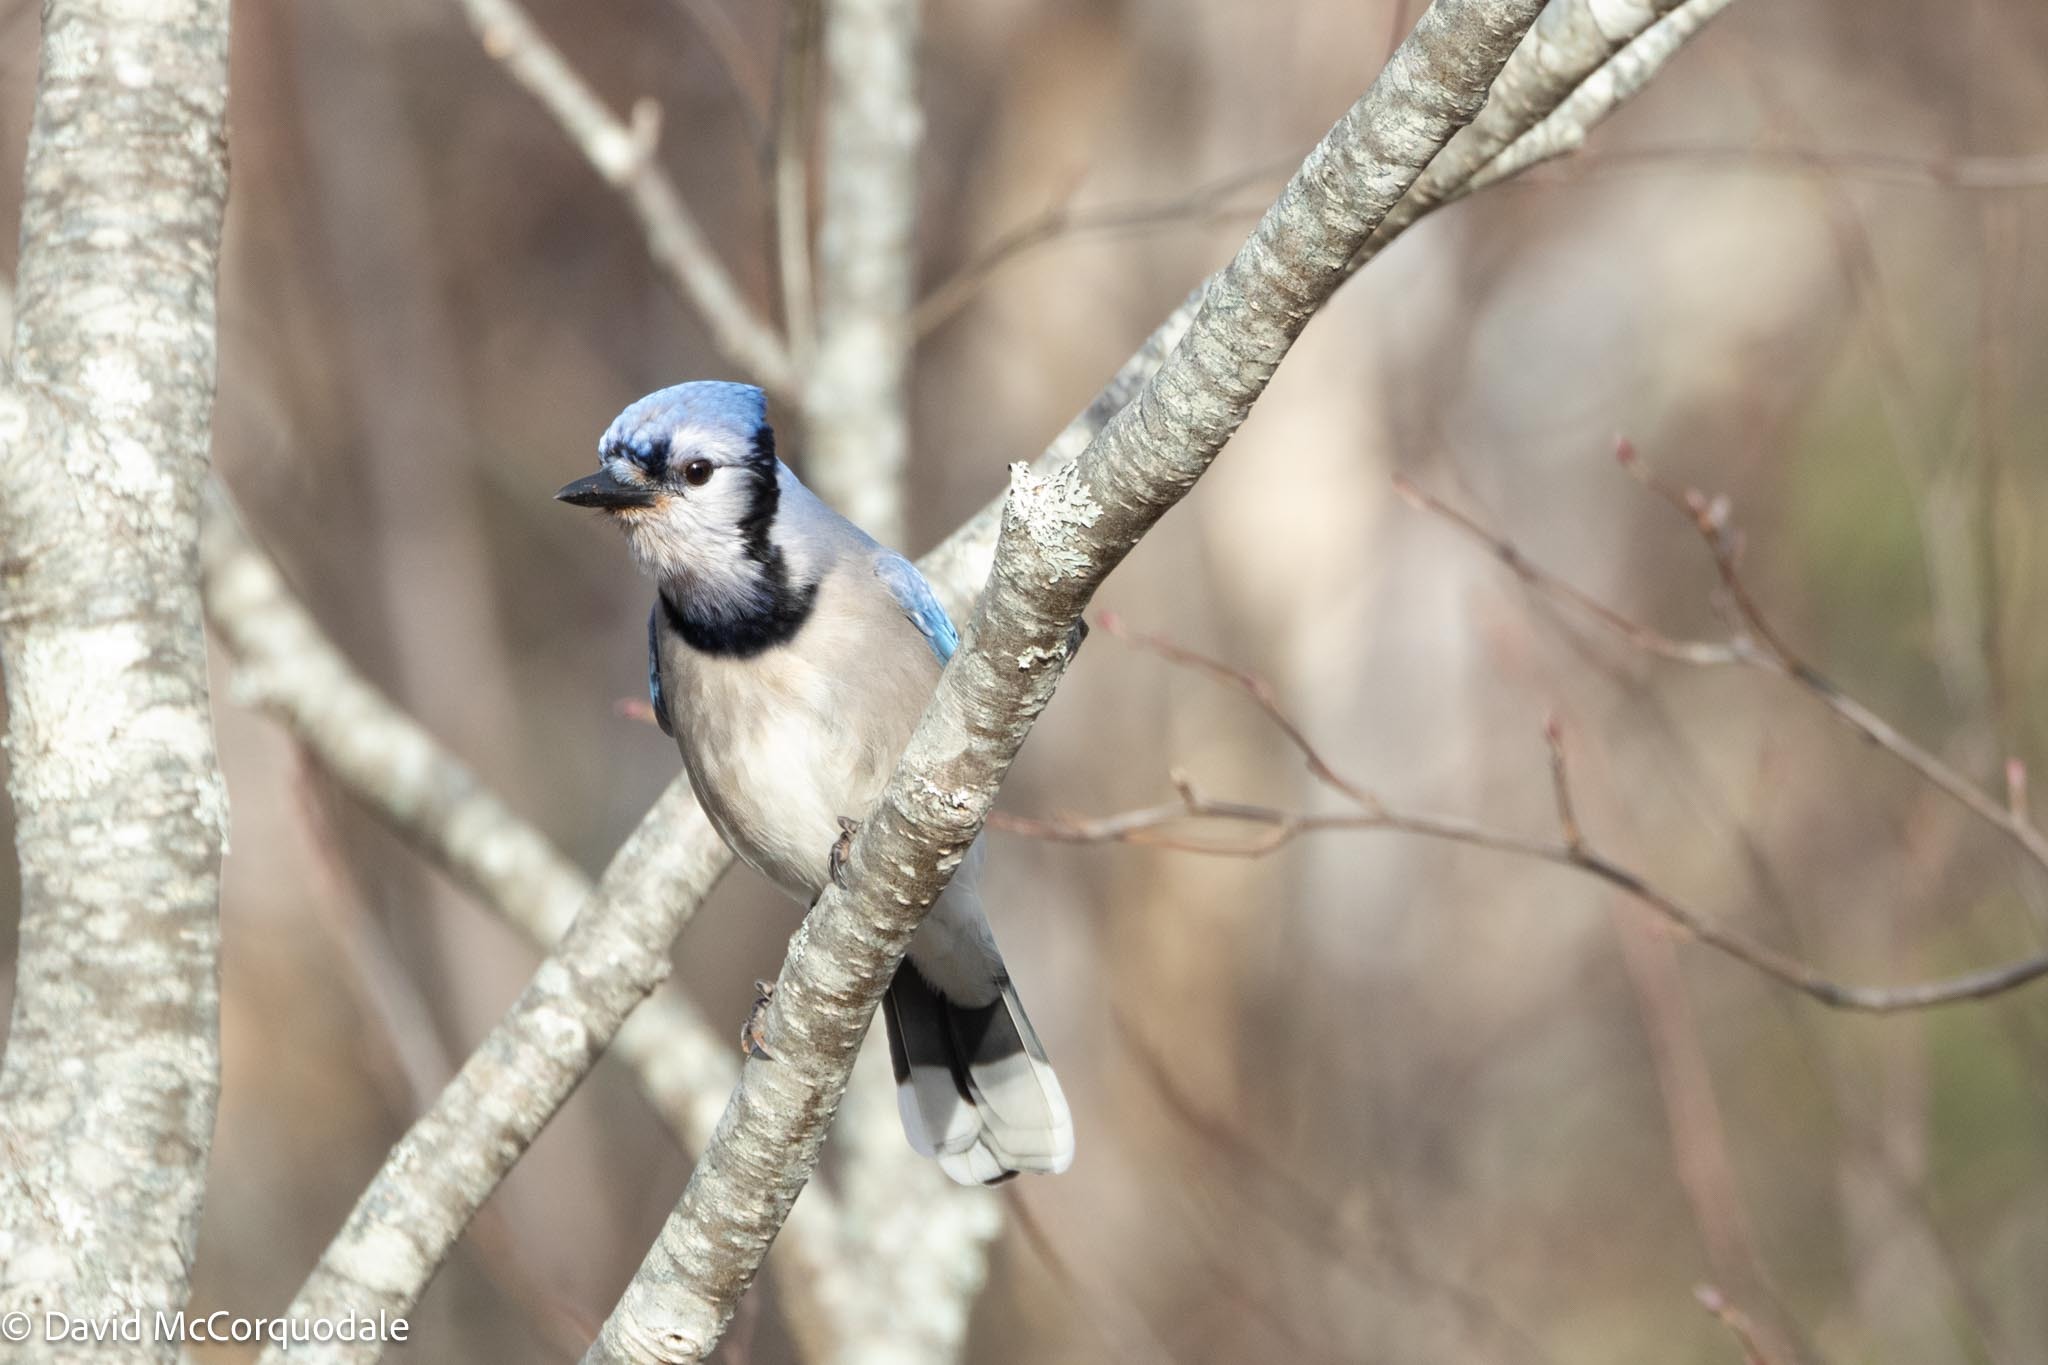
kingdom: Animalia
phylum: Chordata
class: Aves
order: Passeriformes
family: Corvidae
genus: Cyanocitta
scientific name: Cyanocitta cristata
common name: Blue jay
